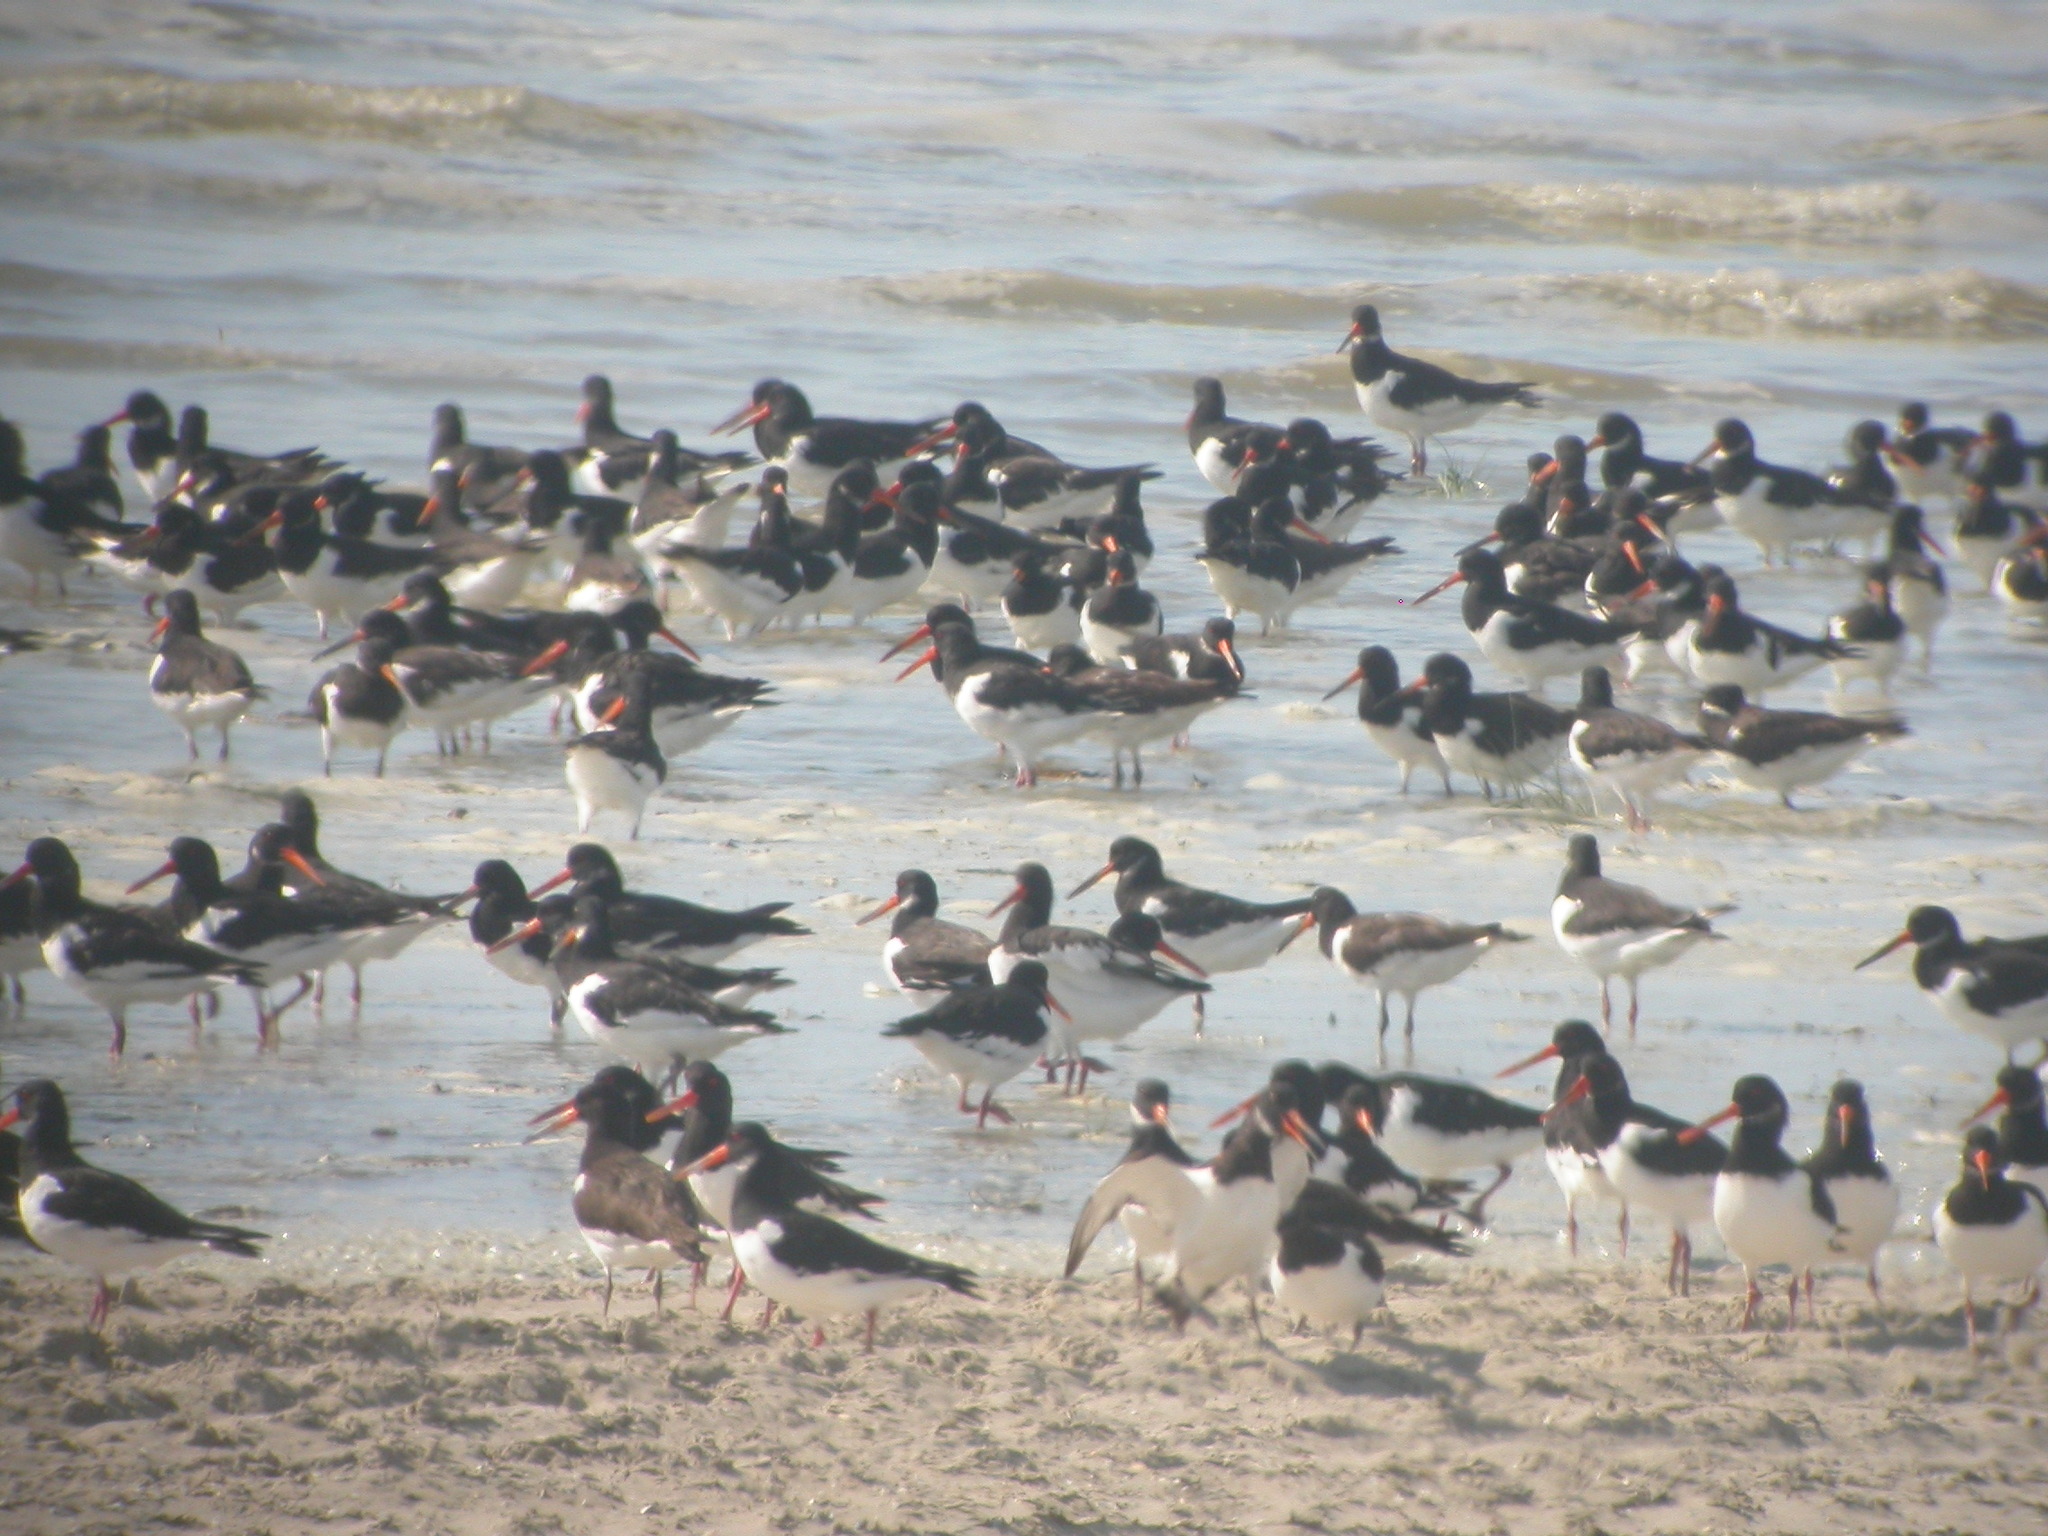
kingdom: Animalia
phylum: Chordata
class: Aves
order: Charadriiformes
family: Haematopodidae
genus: Haematopus
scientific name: Haematopus ostralegus
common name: Eurasian oystercatcher
